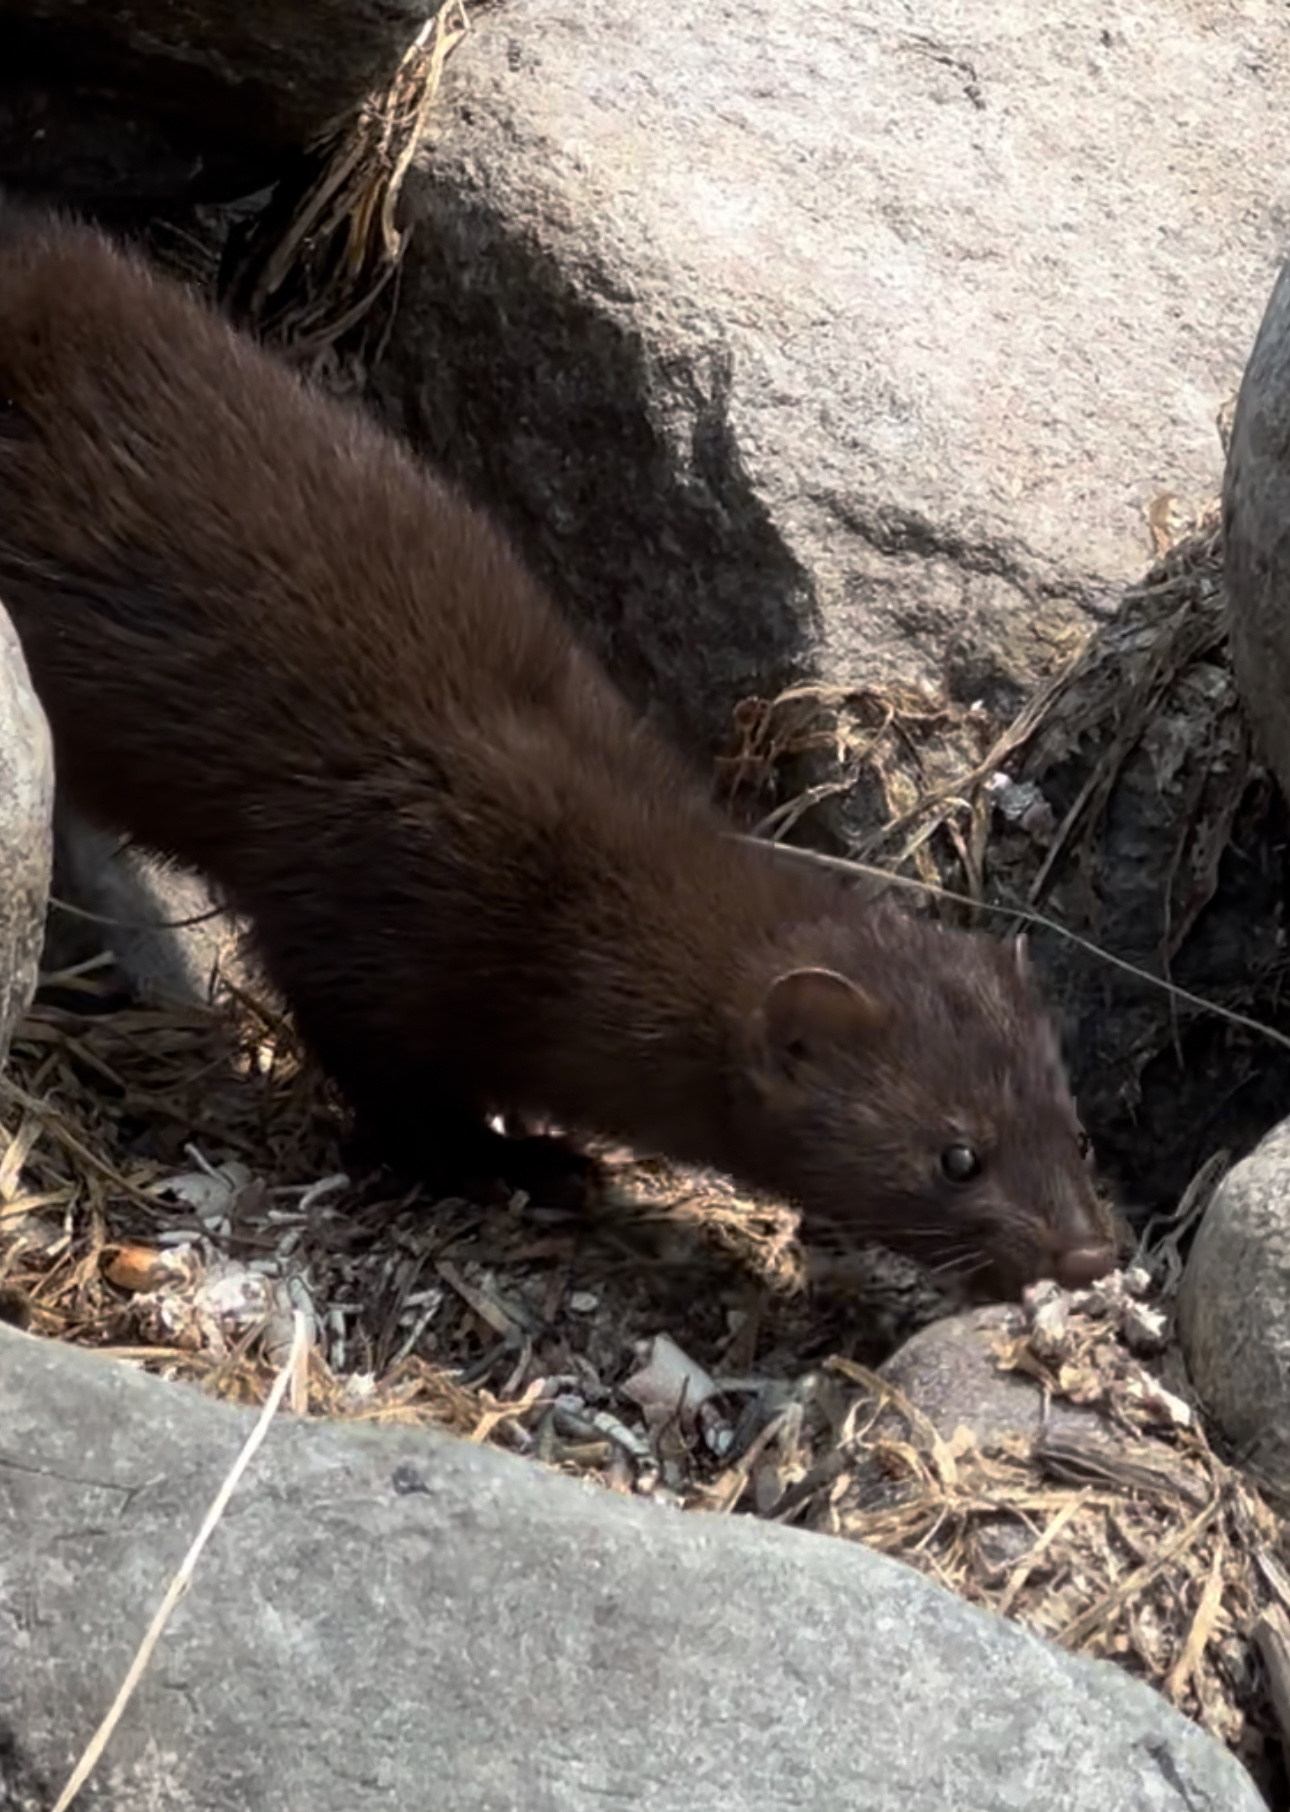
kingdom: Animalia
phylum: Chordata
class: Mammalia
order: Carnivora
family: Mustelidae
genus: Mustela
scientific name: Mustela
